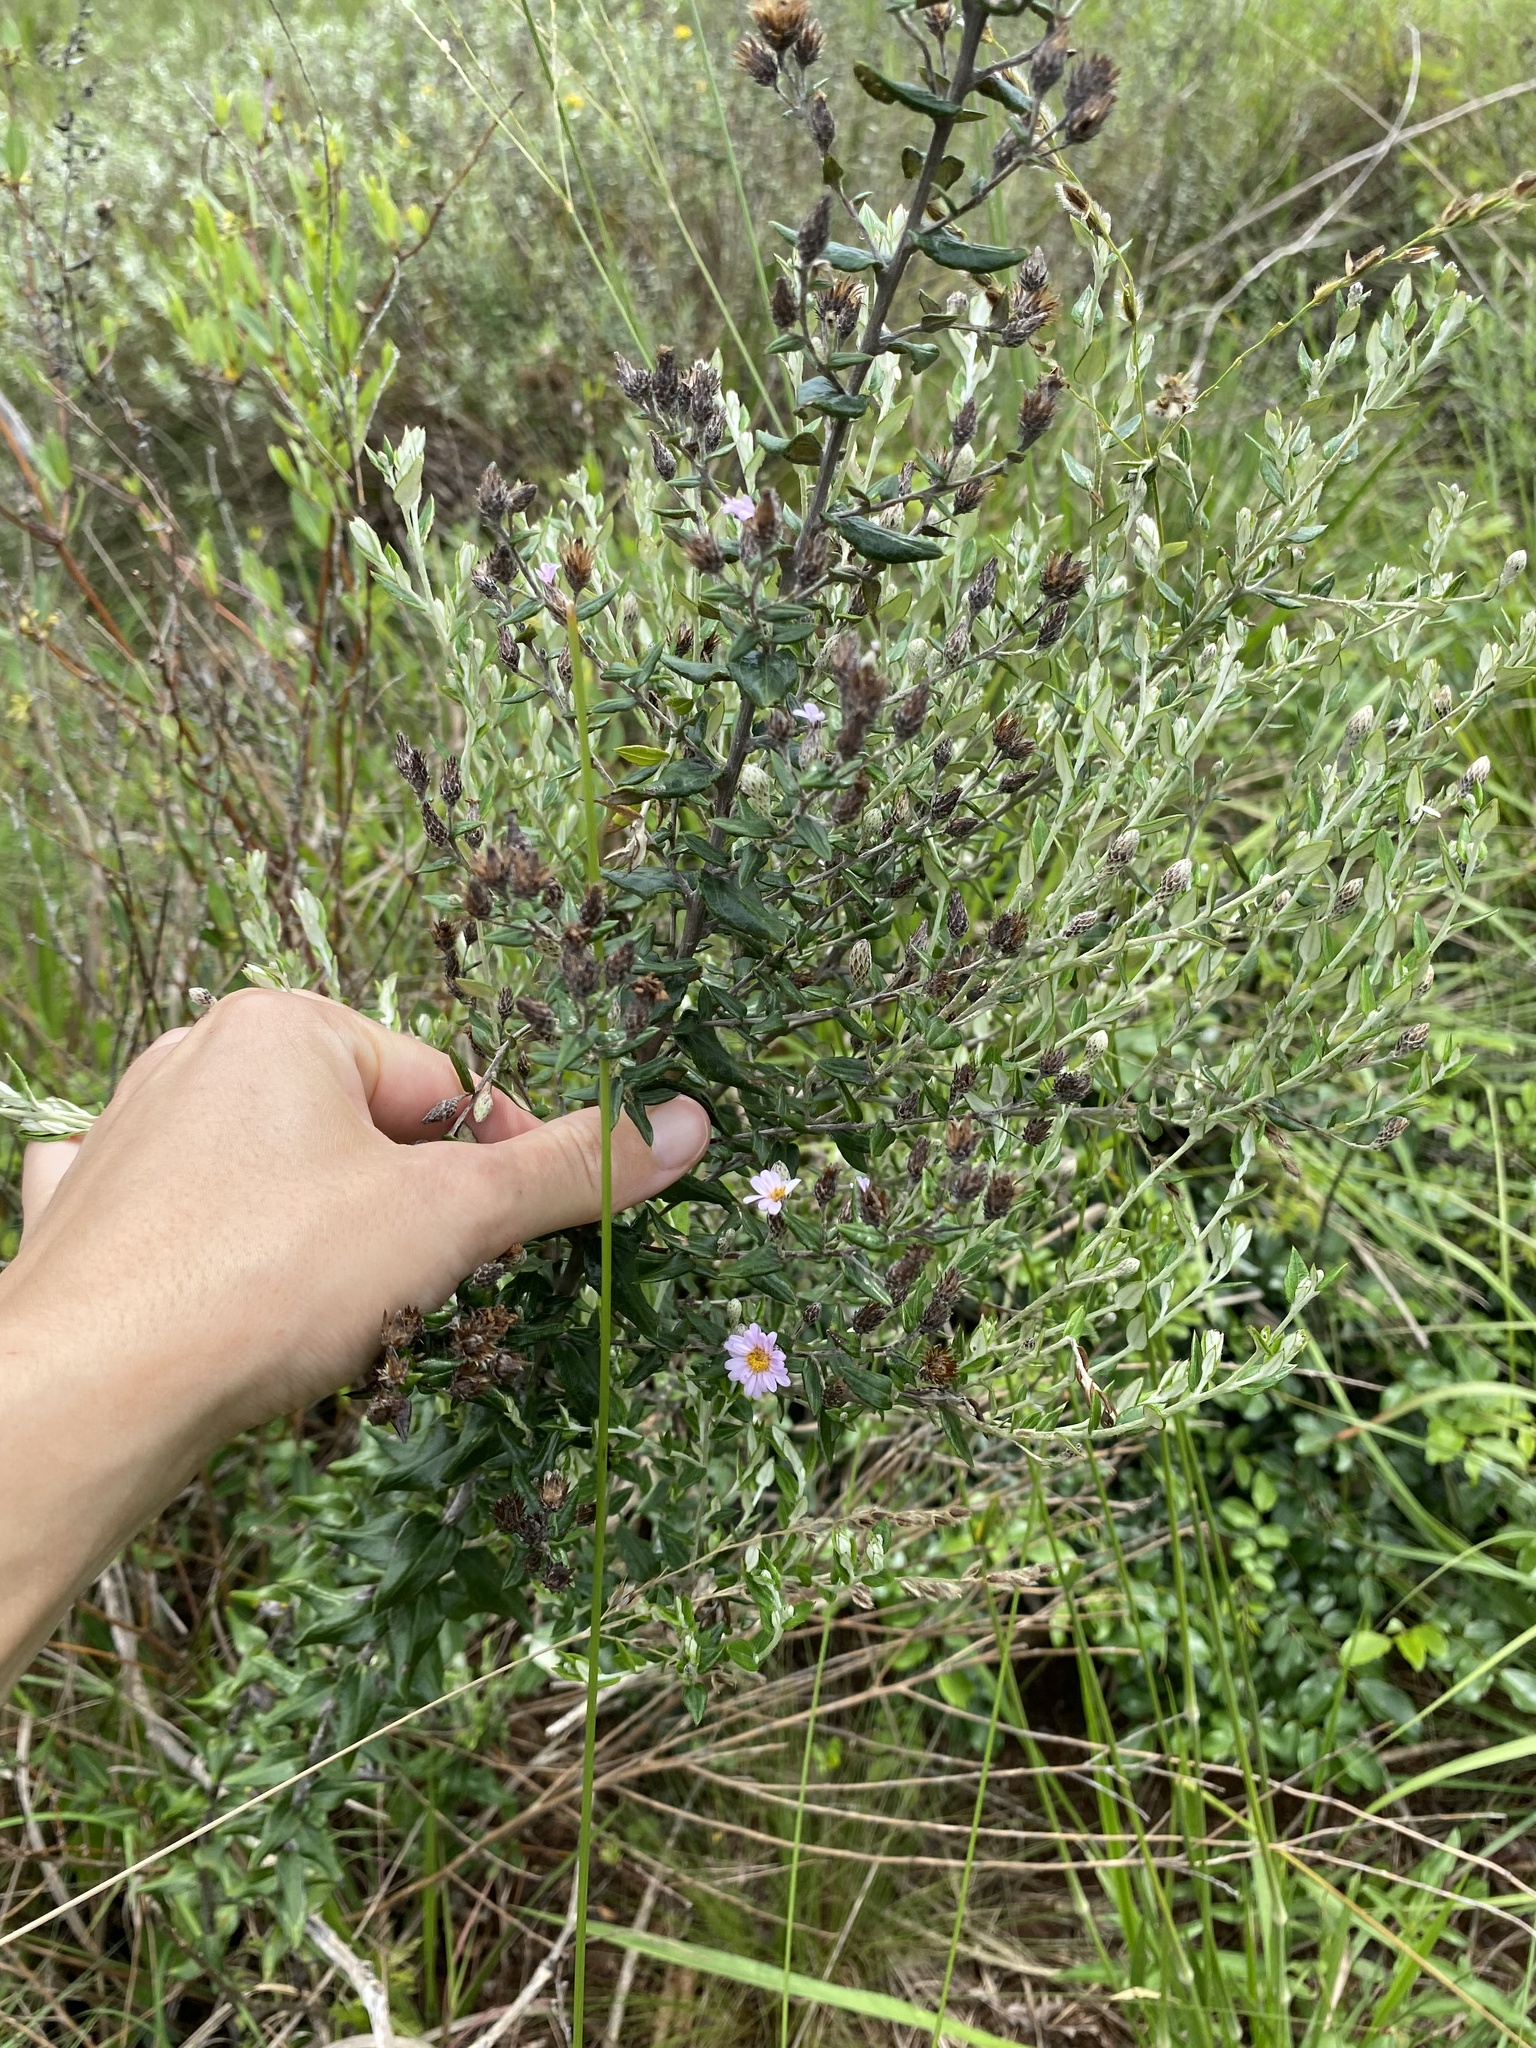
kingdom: Plantae
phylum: Tracheophyta
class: Magnoliopsida
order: Asterales
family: Asteraceae
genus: Athrixia
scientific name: Athrixia phylicoides
